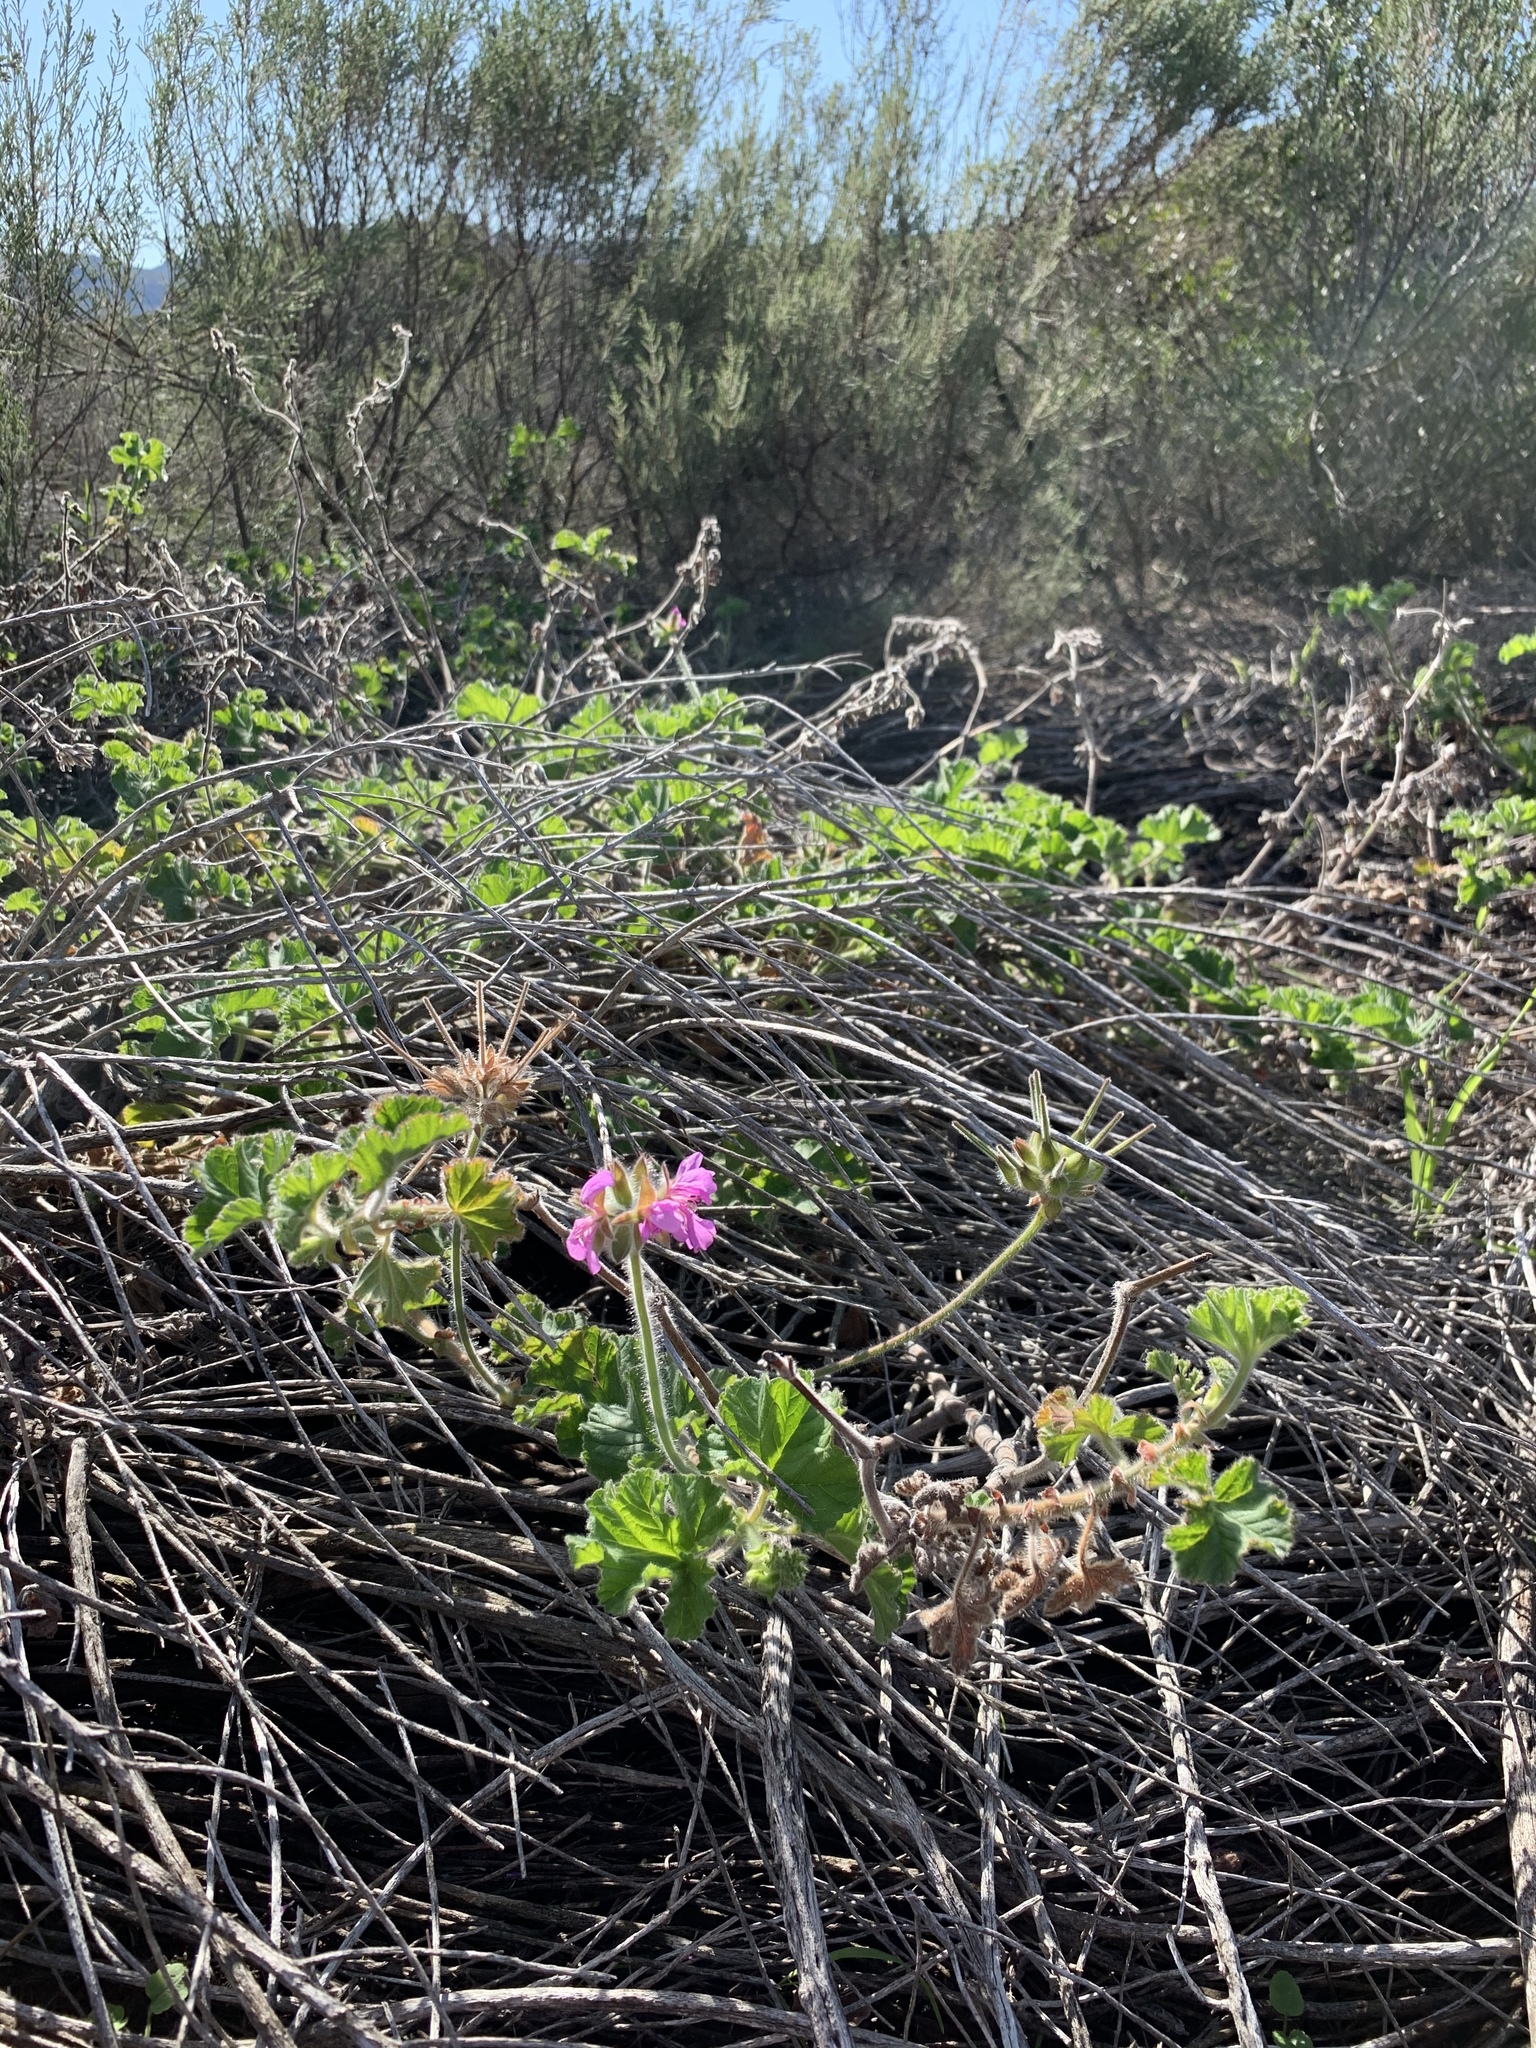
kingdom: Plantae
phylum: Tracheophyta
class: Magnoliopsida
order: Geraniales
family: Geraniaceae
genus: Pelargonium
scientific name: Pelargonium capitatum
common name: Rose scented geranium
